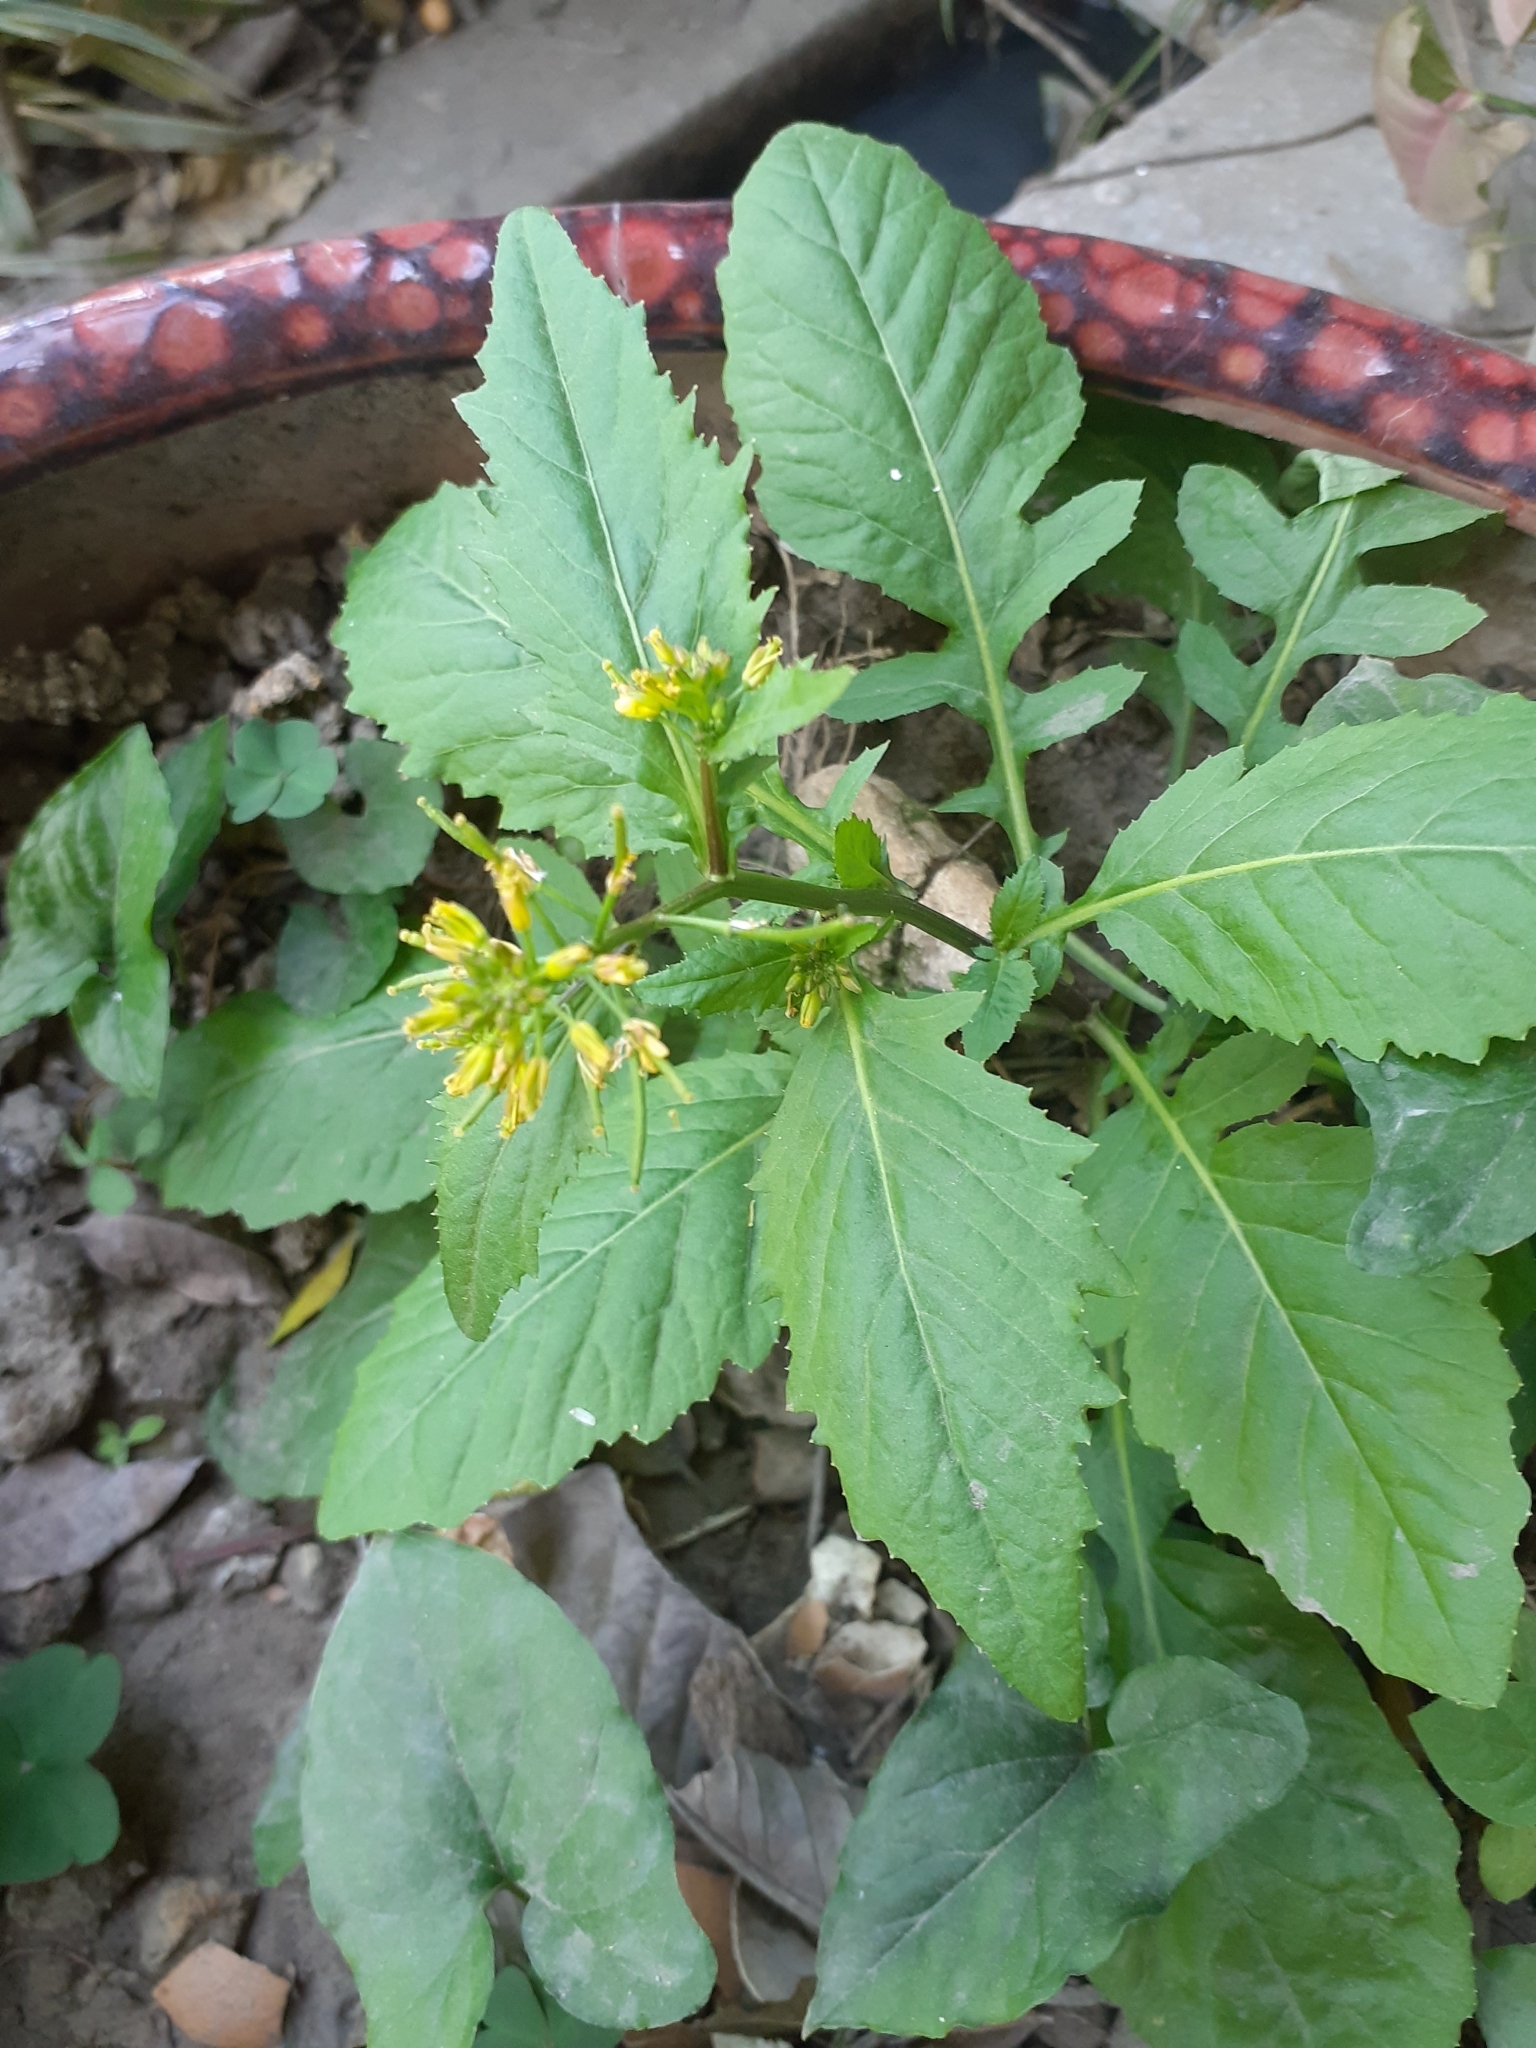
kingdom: Plantae
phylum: Tracheophyta
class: Magnoliopsida
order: Brassicales
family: Brassicaceae
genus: Rorippa
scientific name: Rorippa indica
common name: Variableleaf yellowcress
